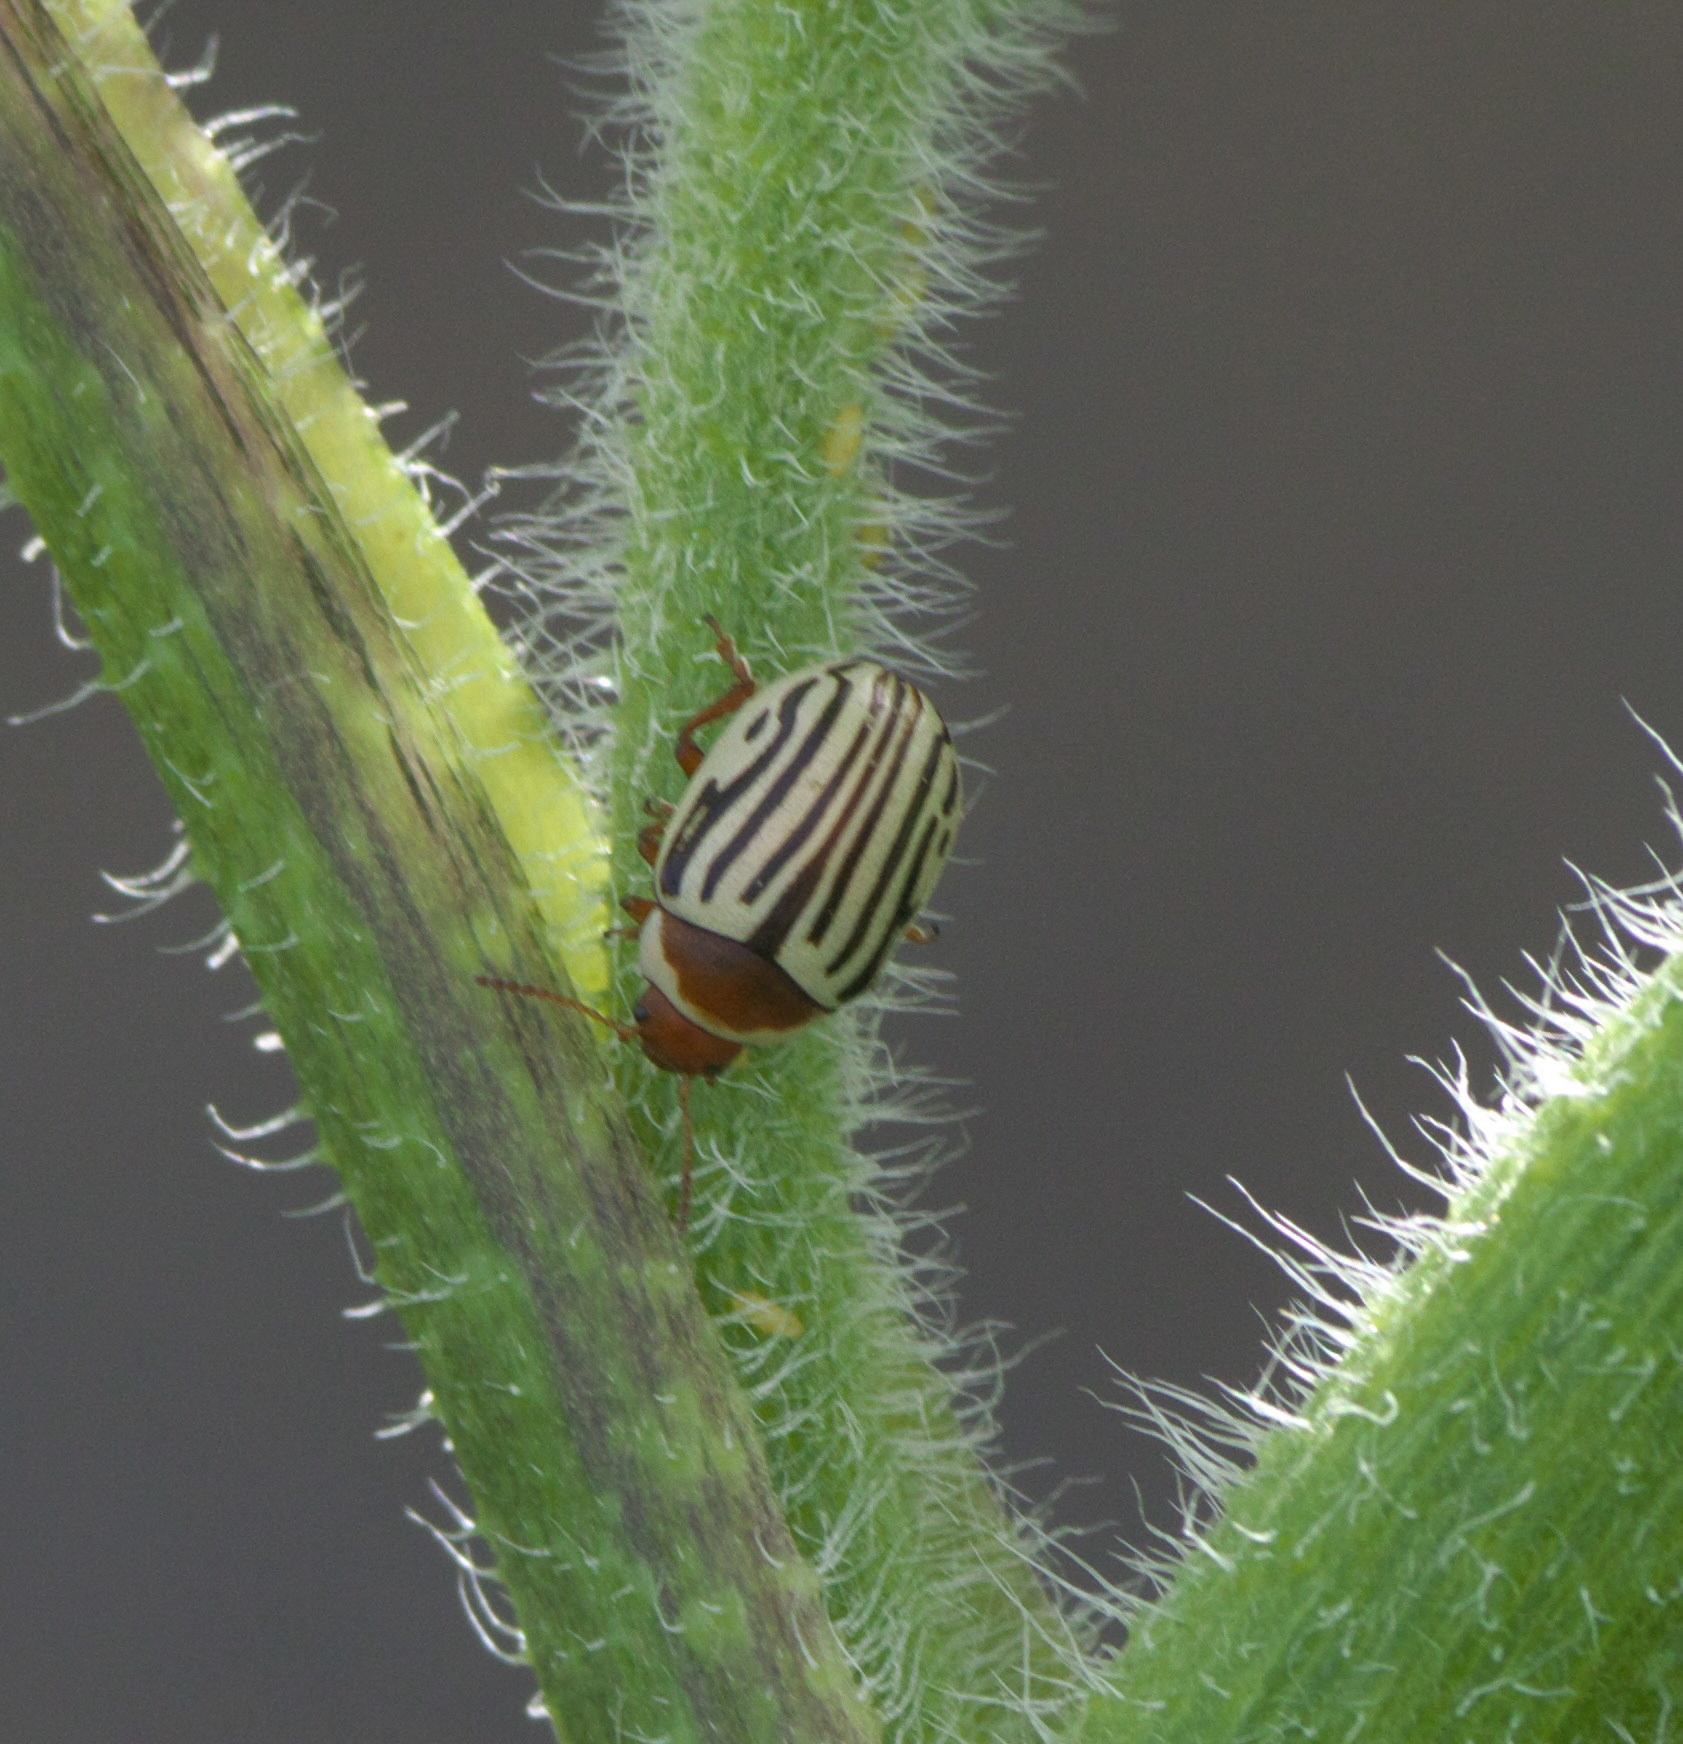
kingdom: Animalia
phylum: Arthropoda
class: Insecta
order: Coleoptera
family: Chrysomelidae
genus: Calligrapha
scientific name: Calligrapha
